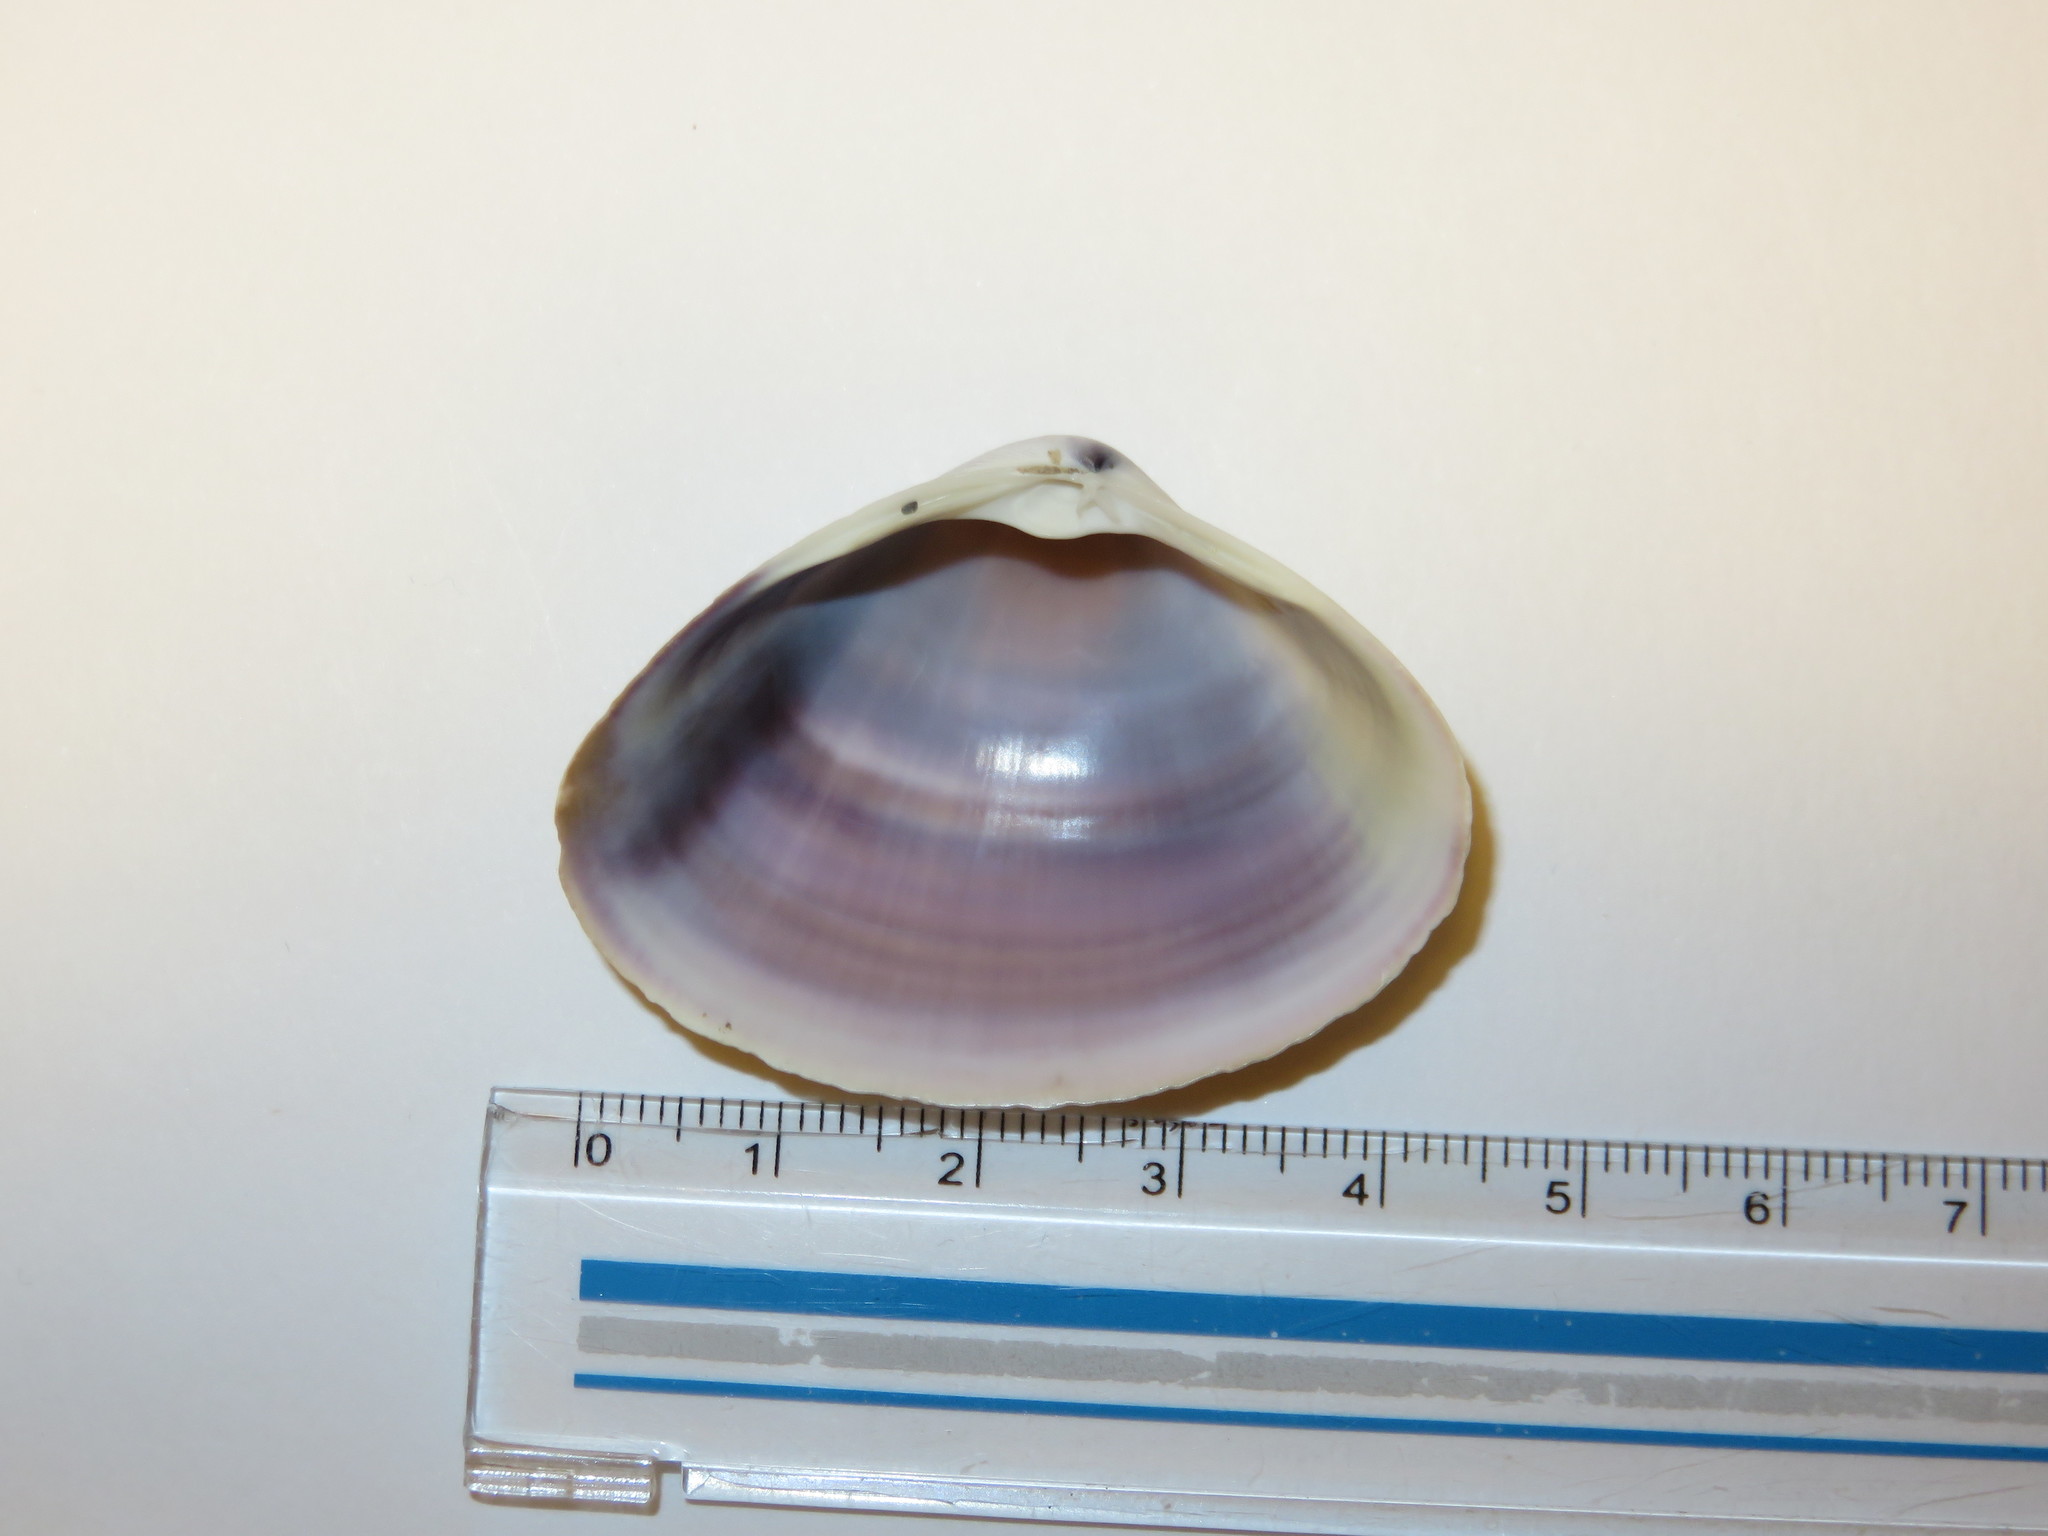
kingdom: Animalia
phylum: Mollusca
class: Bivalvia
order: Venerida
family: Mactridae
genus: Mactra
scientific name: Mactra chinensis
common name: Chinese surf clam
